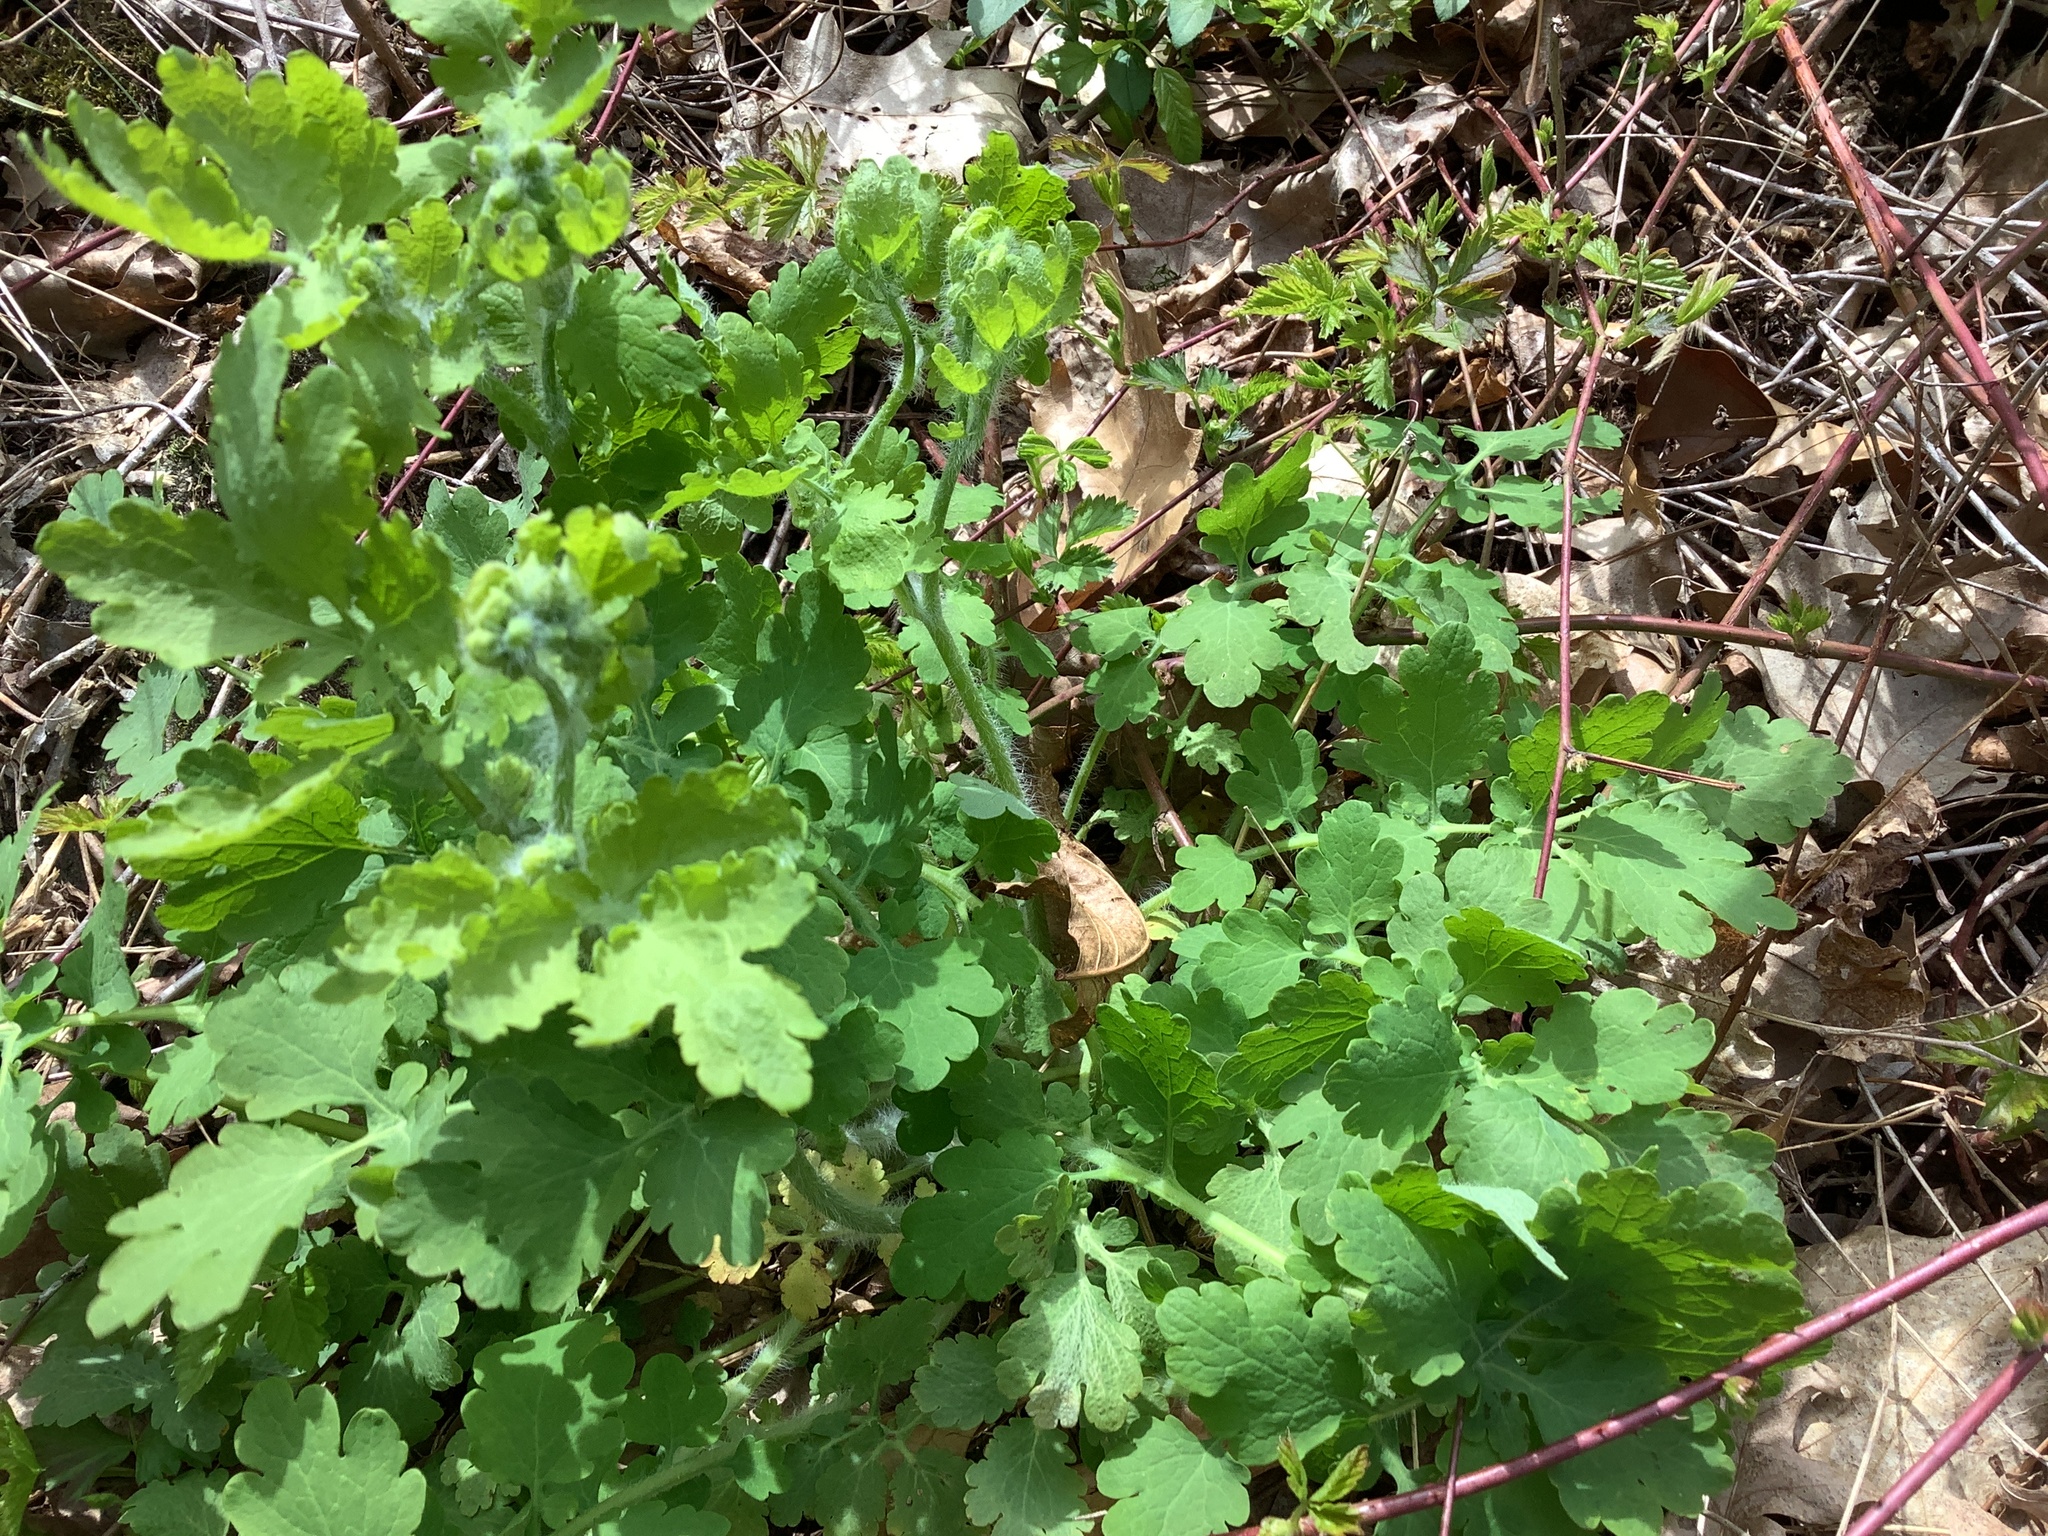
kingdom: Plantae
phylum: Tracheophyta
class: Magnoliopsida
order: Ranunculales
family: Papaveraceae
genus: Chelidonium
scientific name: Chelidonium majus
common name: Greater celandine
